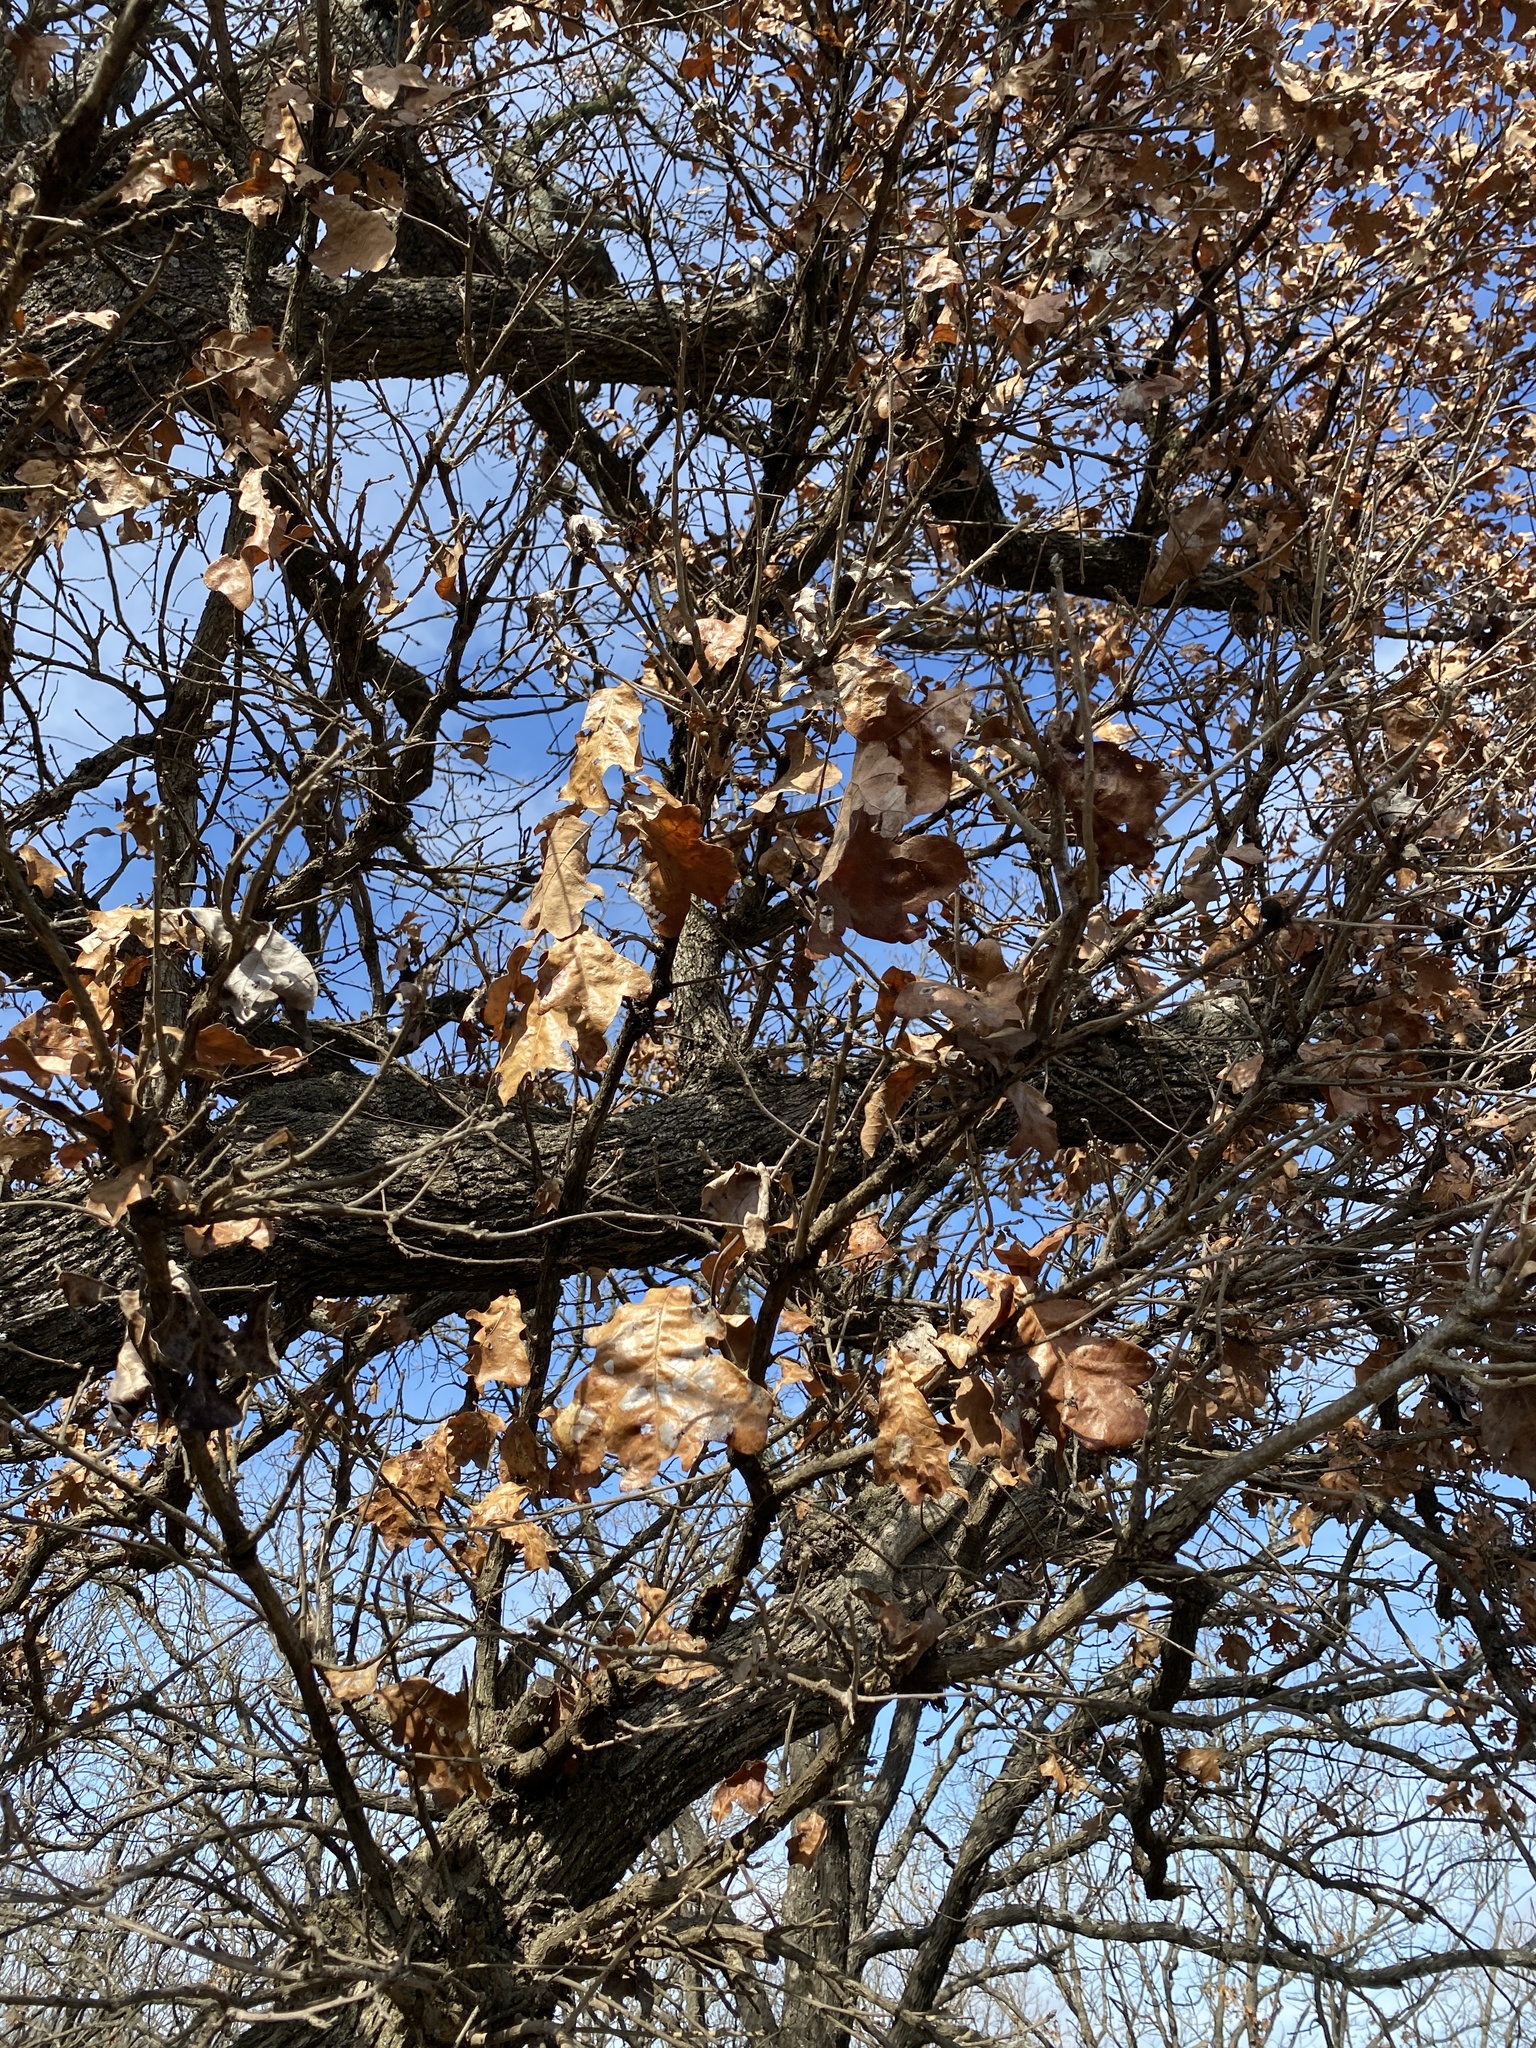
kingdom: Plantae
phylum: Tracheophyta
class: Magnoliopsida
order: Fagales
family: Fagaceae
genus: Quercus
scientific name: Quercus stellata
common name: Post oak
